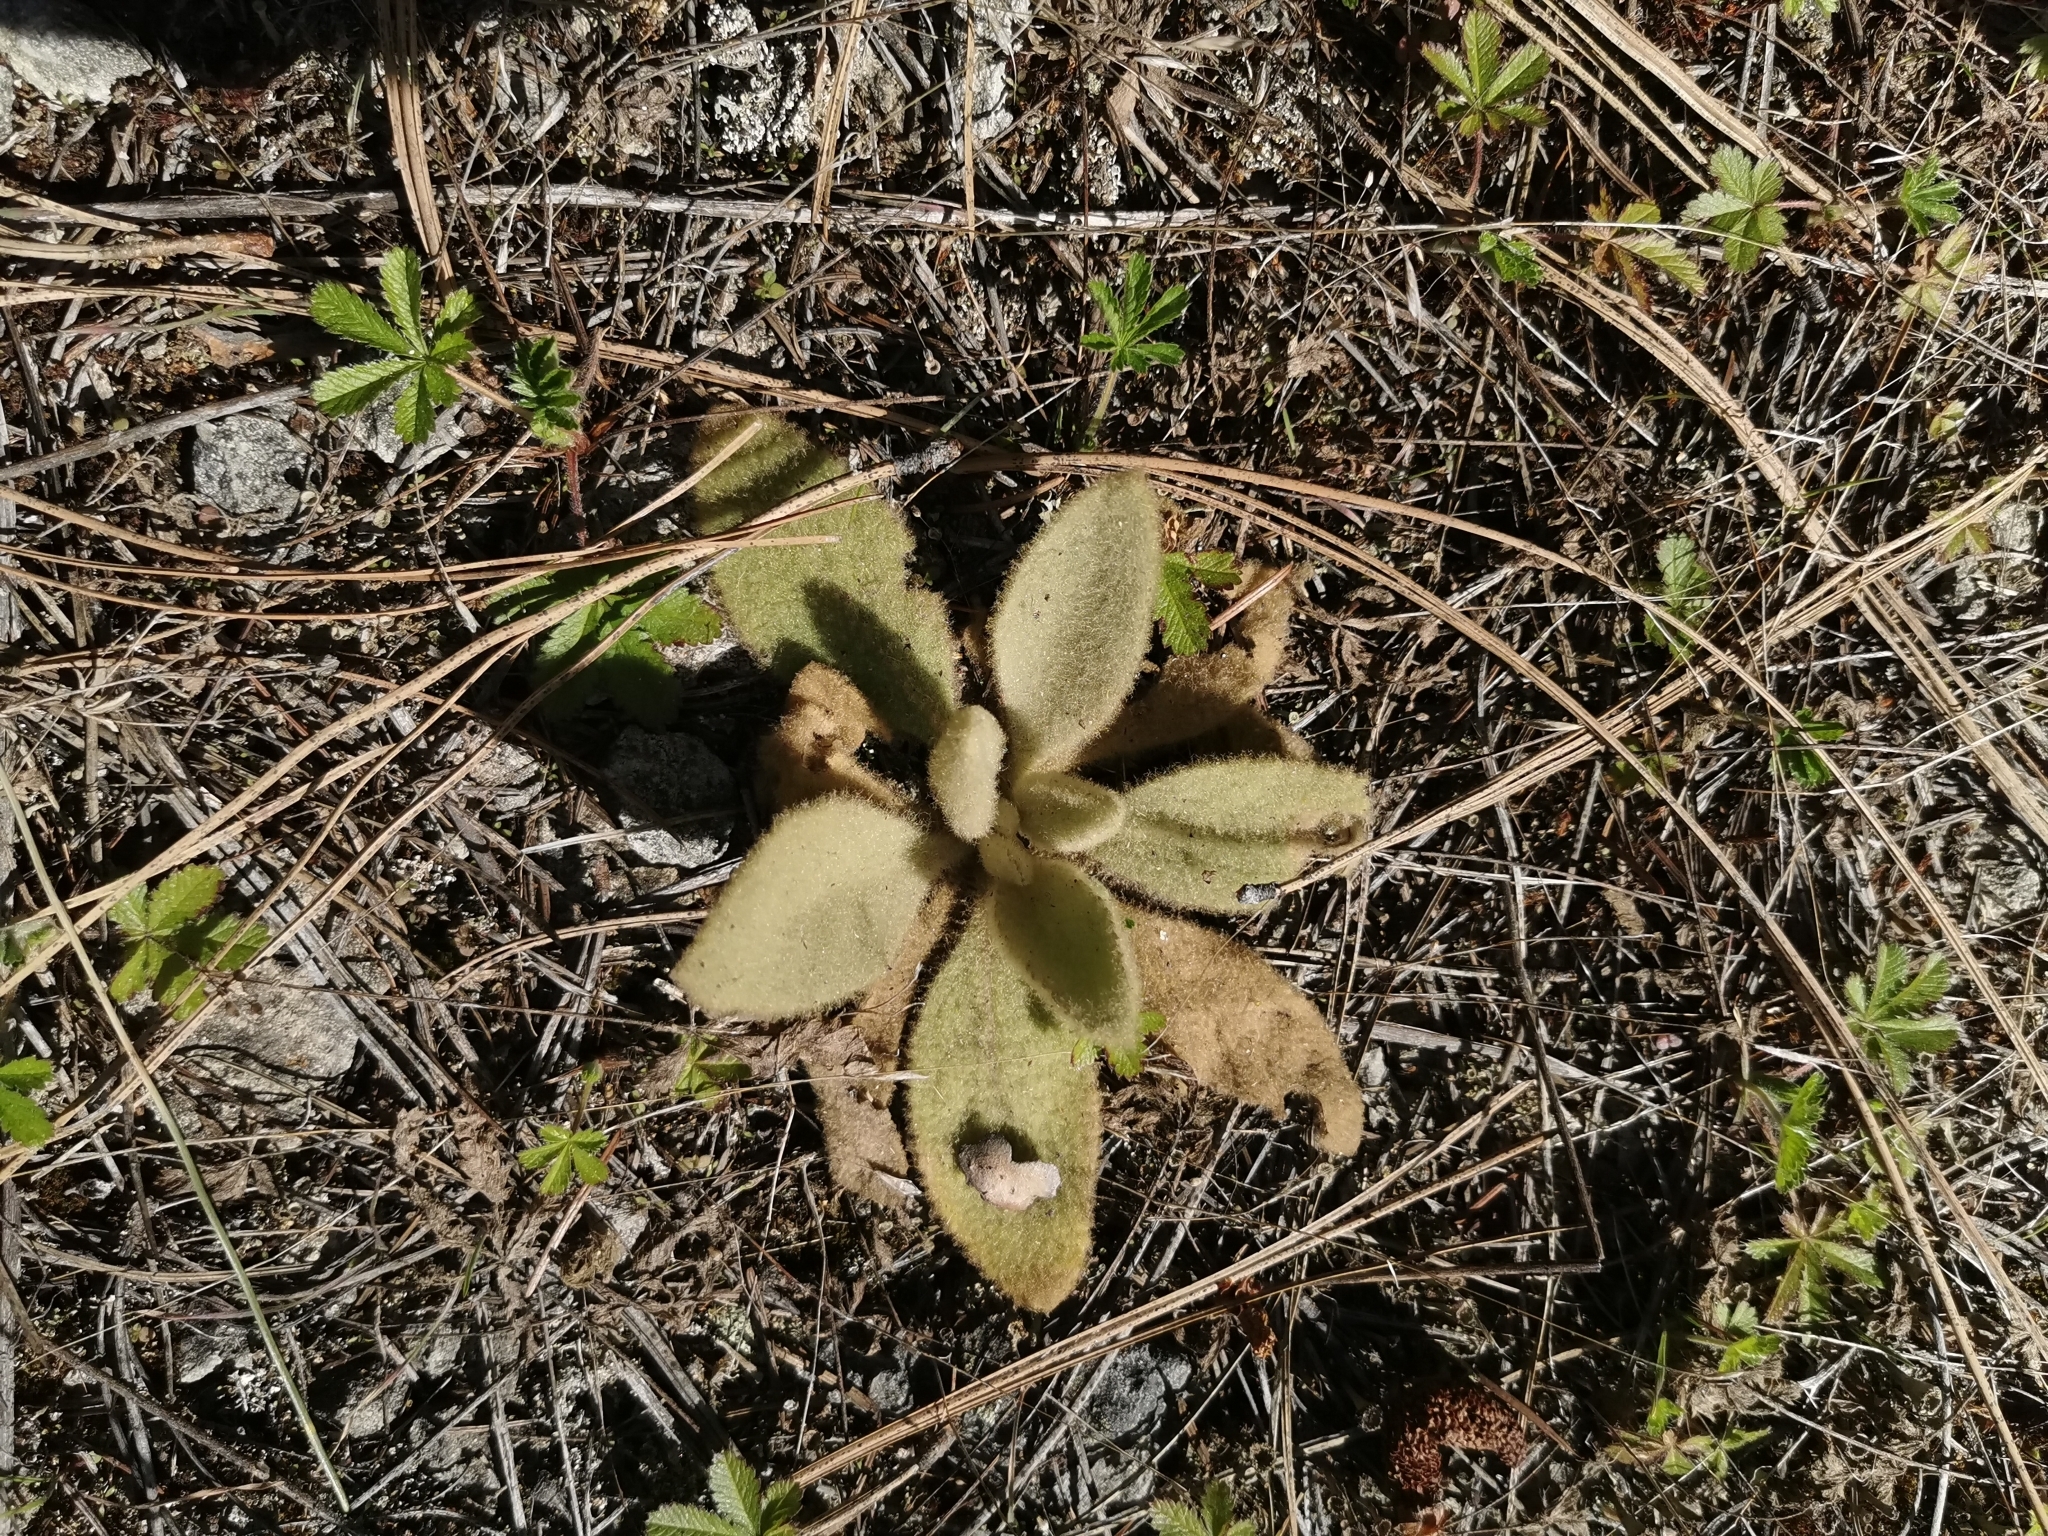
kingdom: Plantae
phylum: Tracheophyta
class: Magnoliopsida
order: Lamiales
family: Scrophulariaceae
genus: Verbascum
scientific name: Verbascum thapsus
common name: Common mullein
